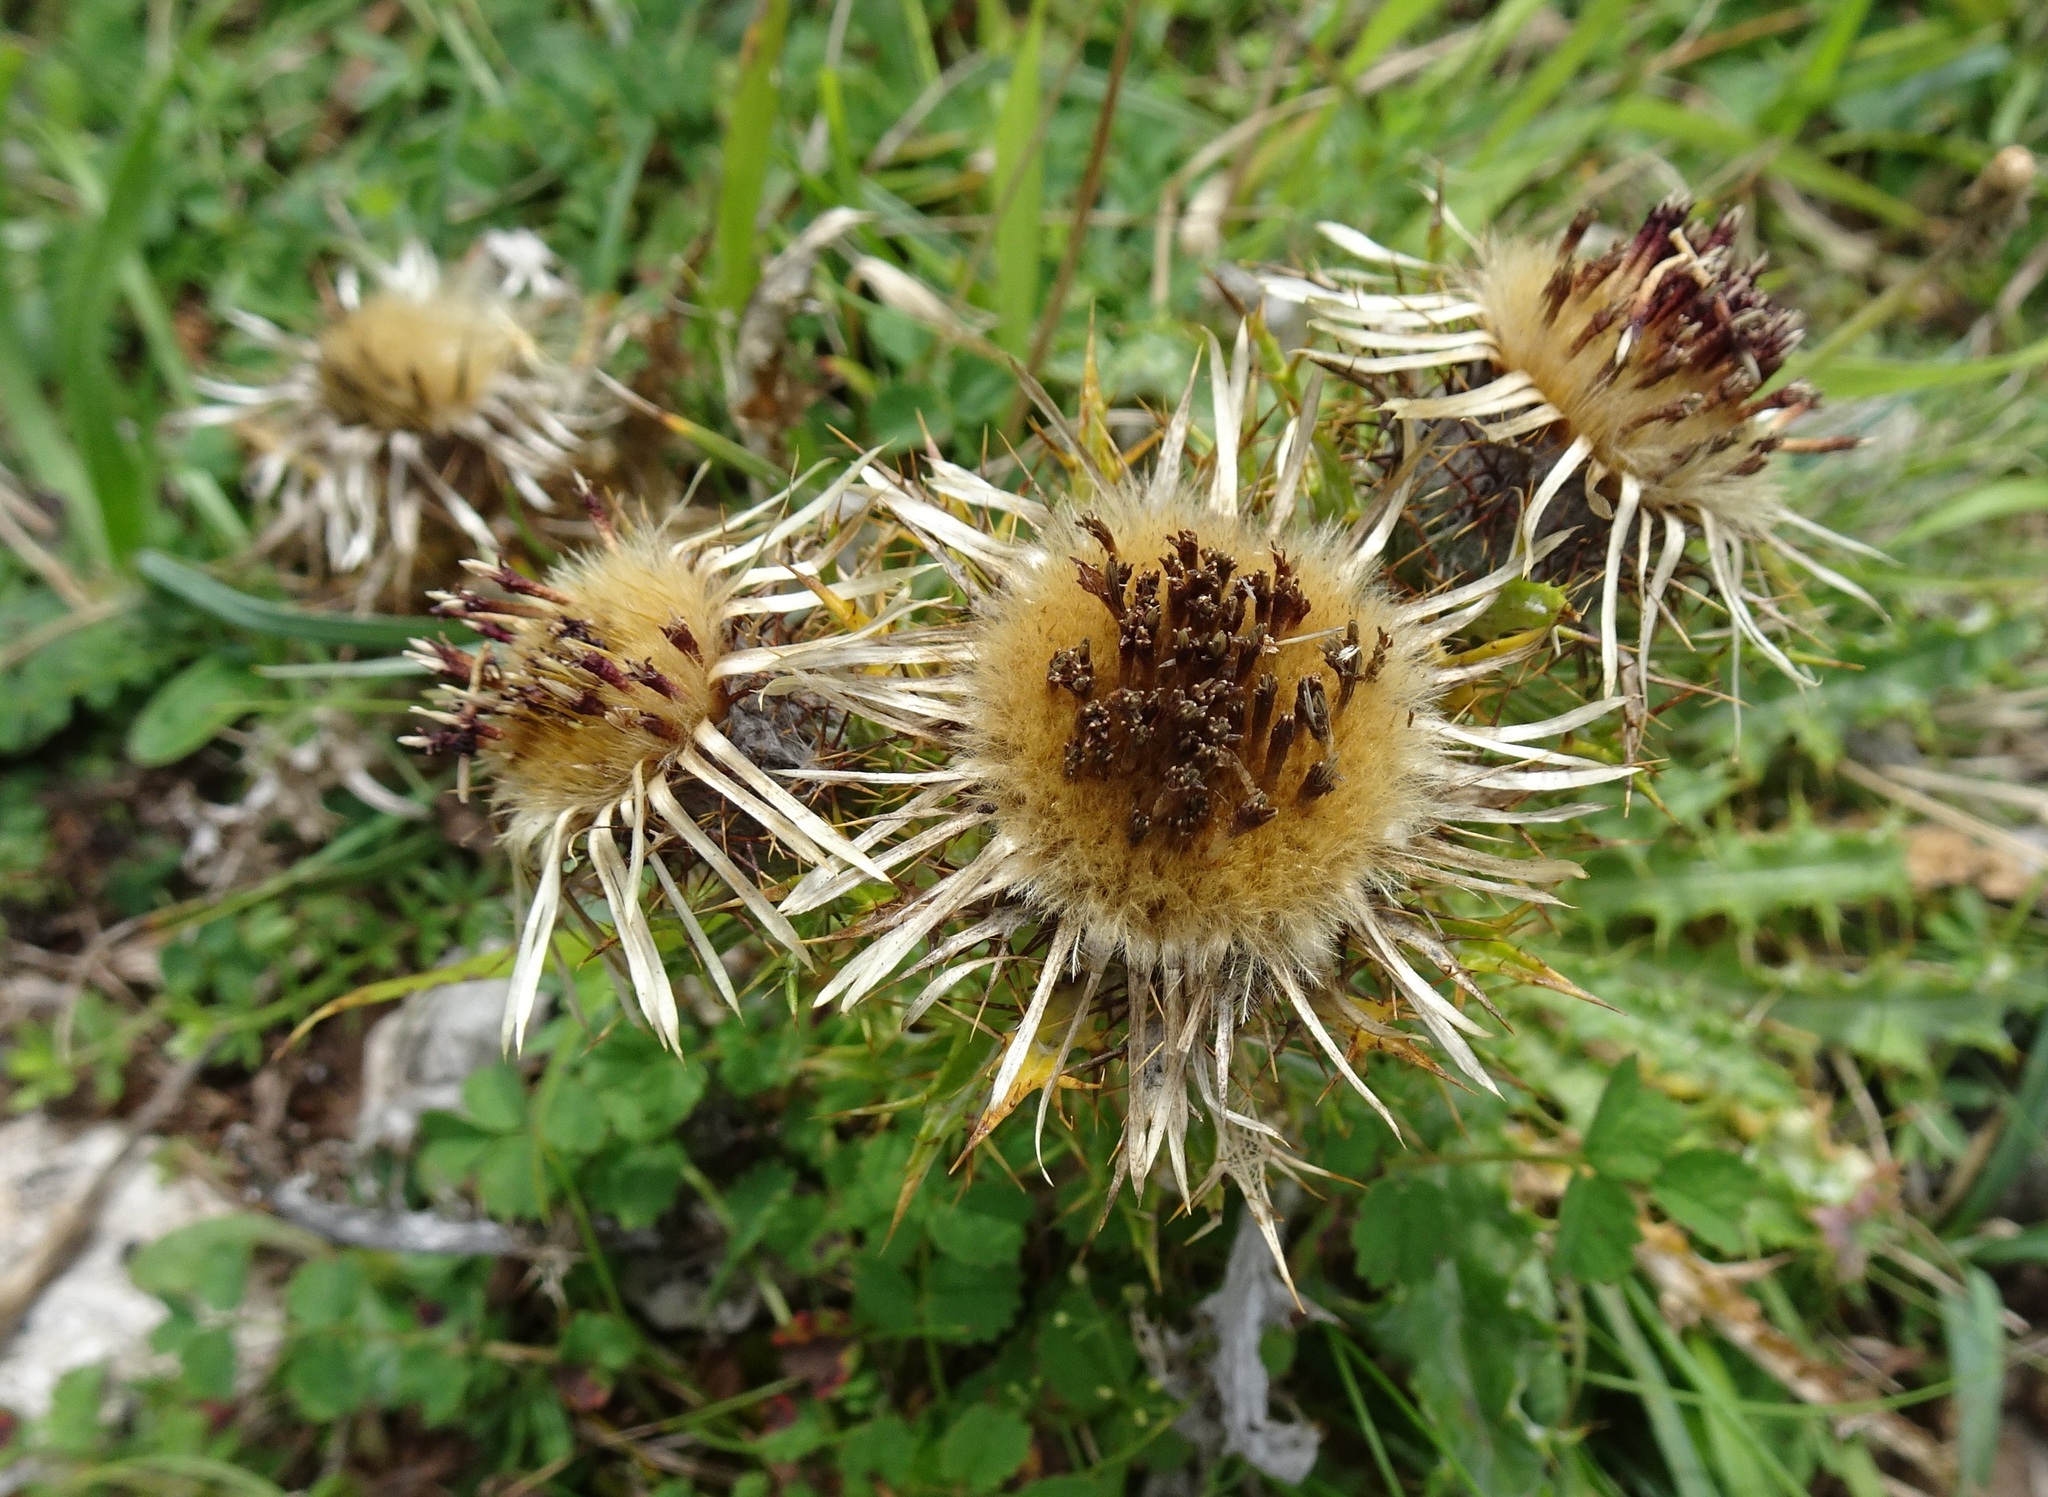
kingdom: Plantae
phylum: Tracheophyta
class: Magnoliopsida
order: Asterales
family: Asteraceae
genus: Carlina
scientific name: Carlina vulgaris
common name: Carline thistle
